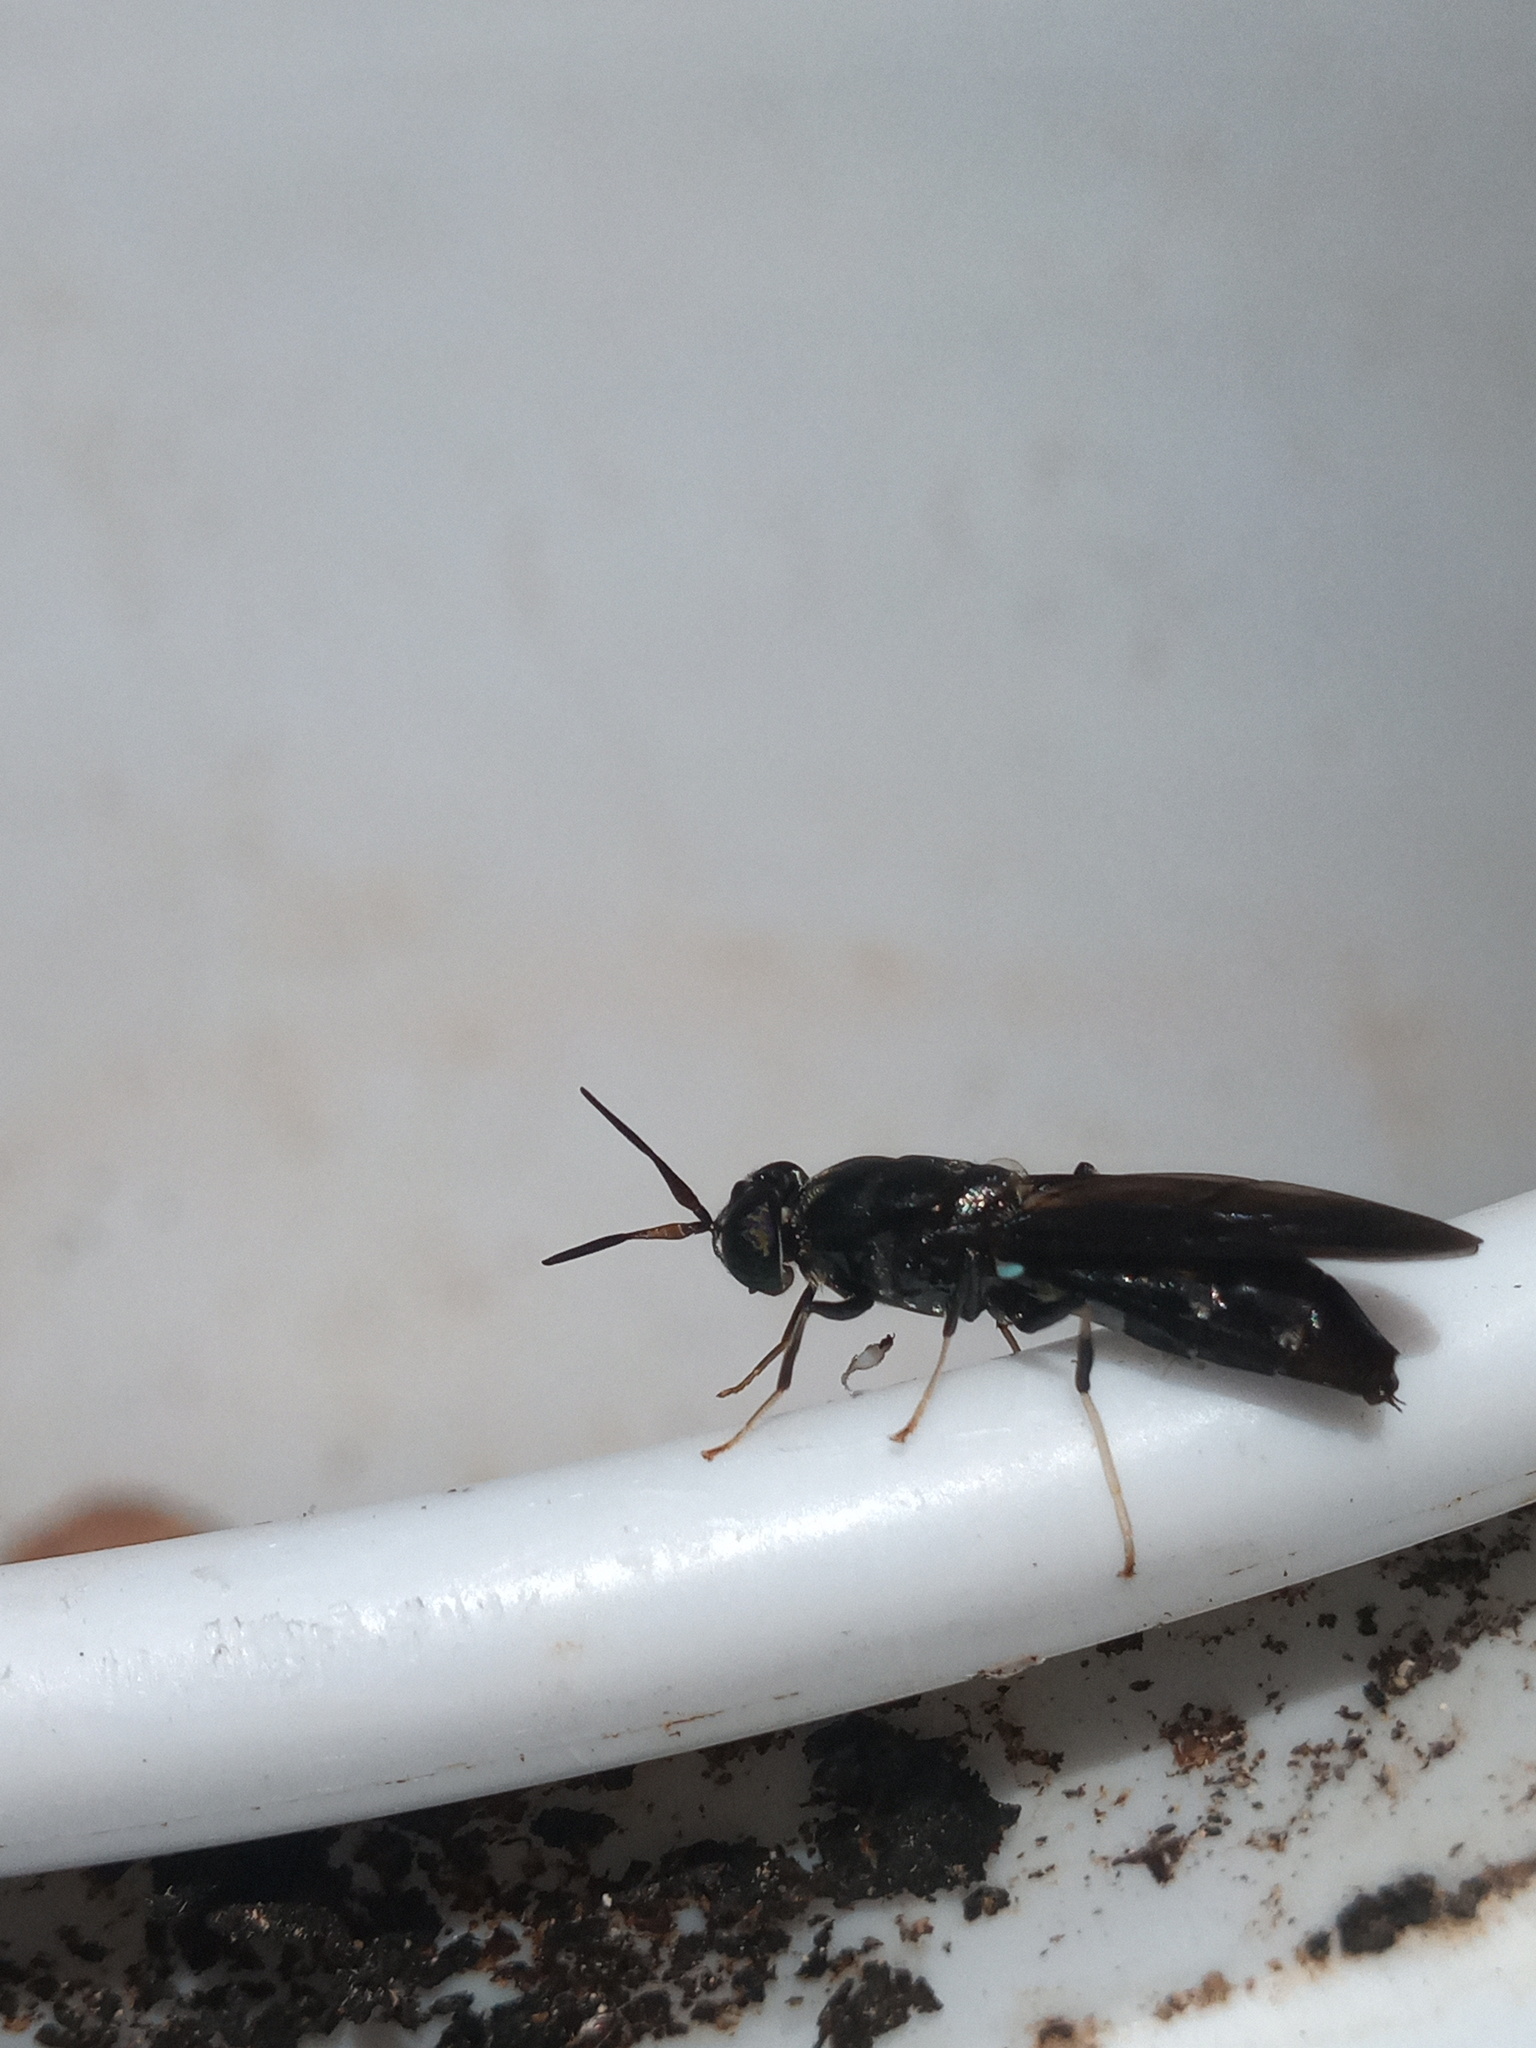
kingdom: Animalia
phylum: Arthropoda
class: Insecta
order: Diptera
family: Stratiomyidae
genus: Hermetia
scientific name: Hermetia illucens
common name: Black soldier fly
